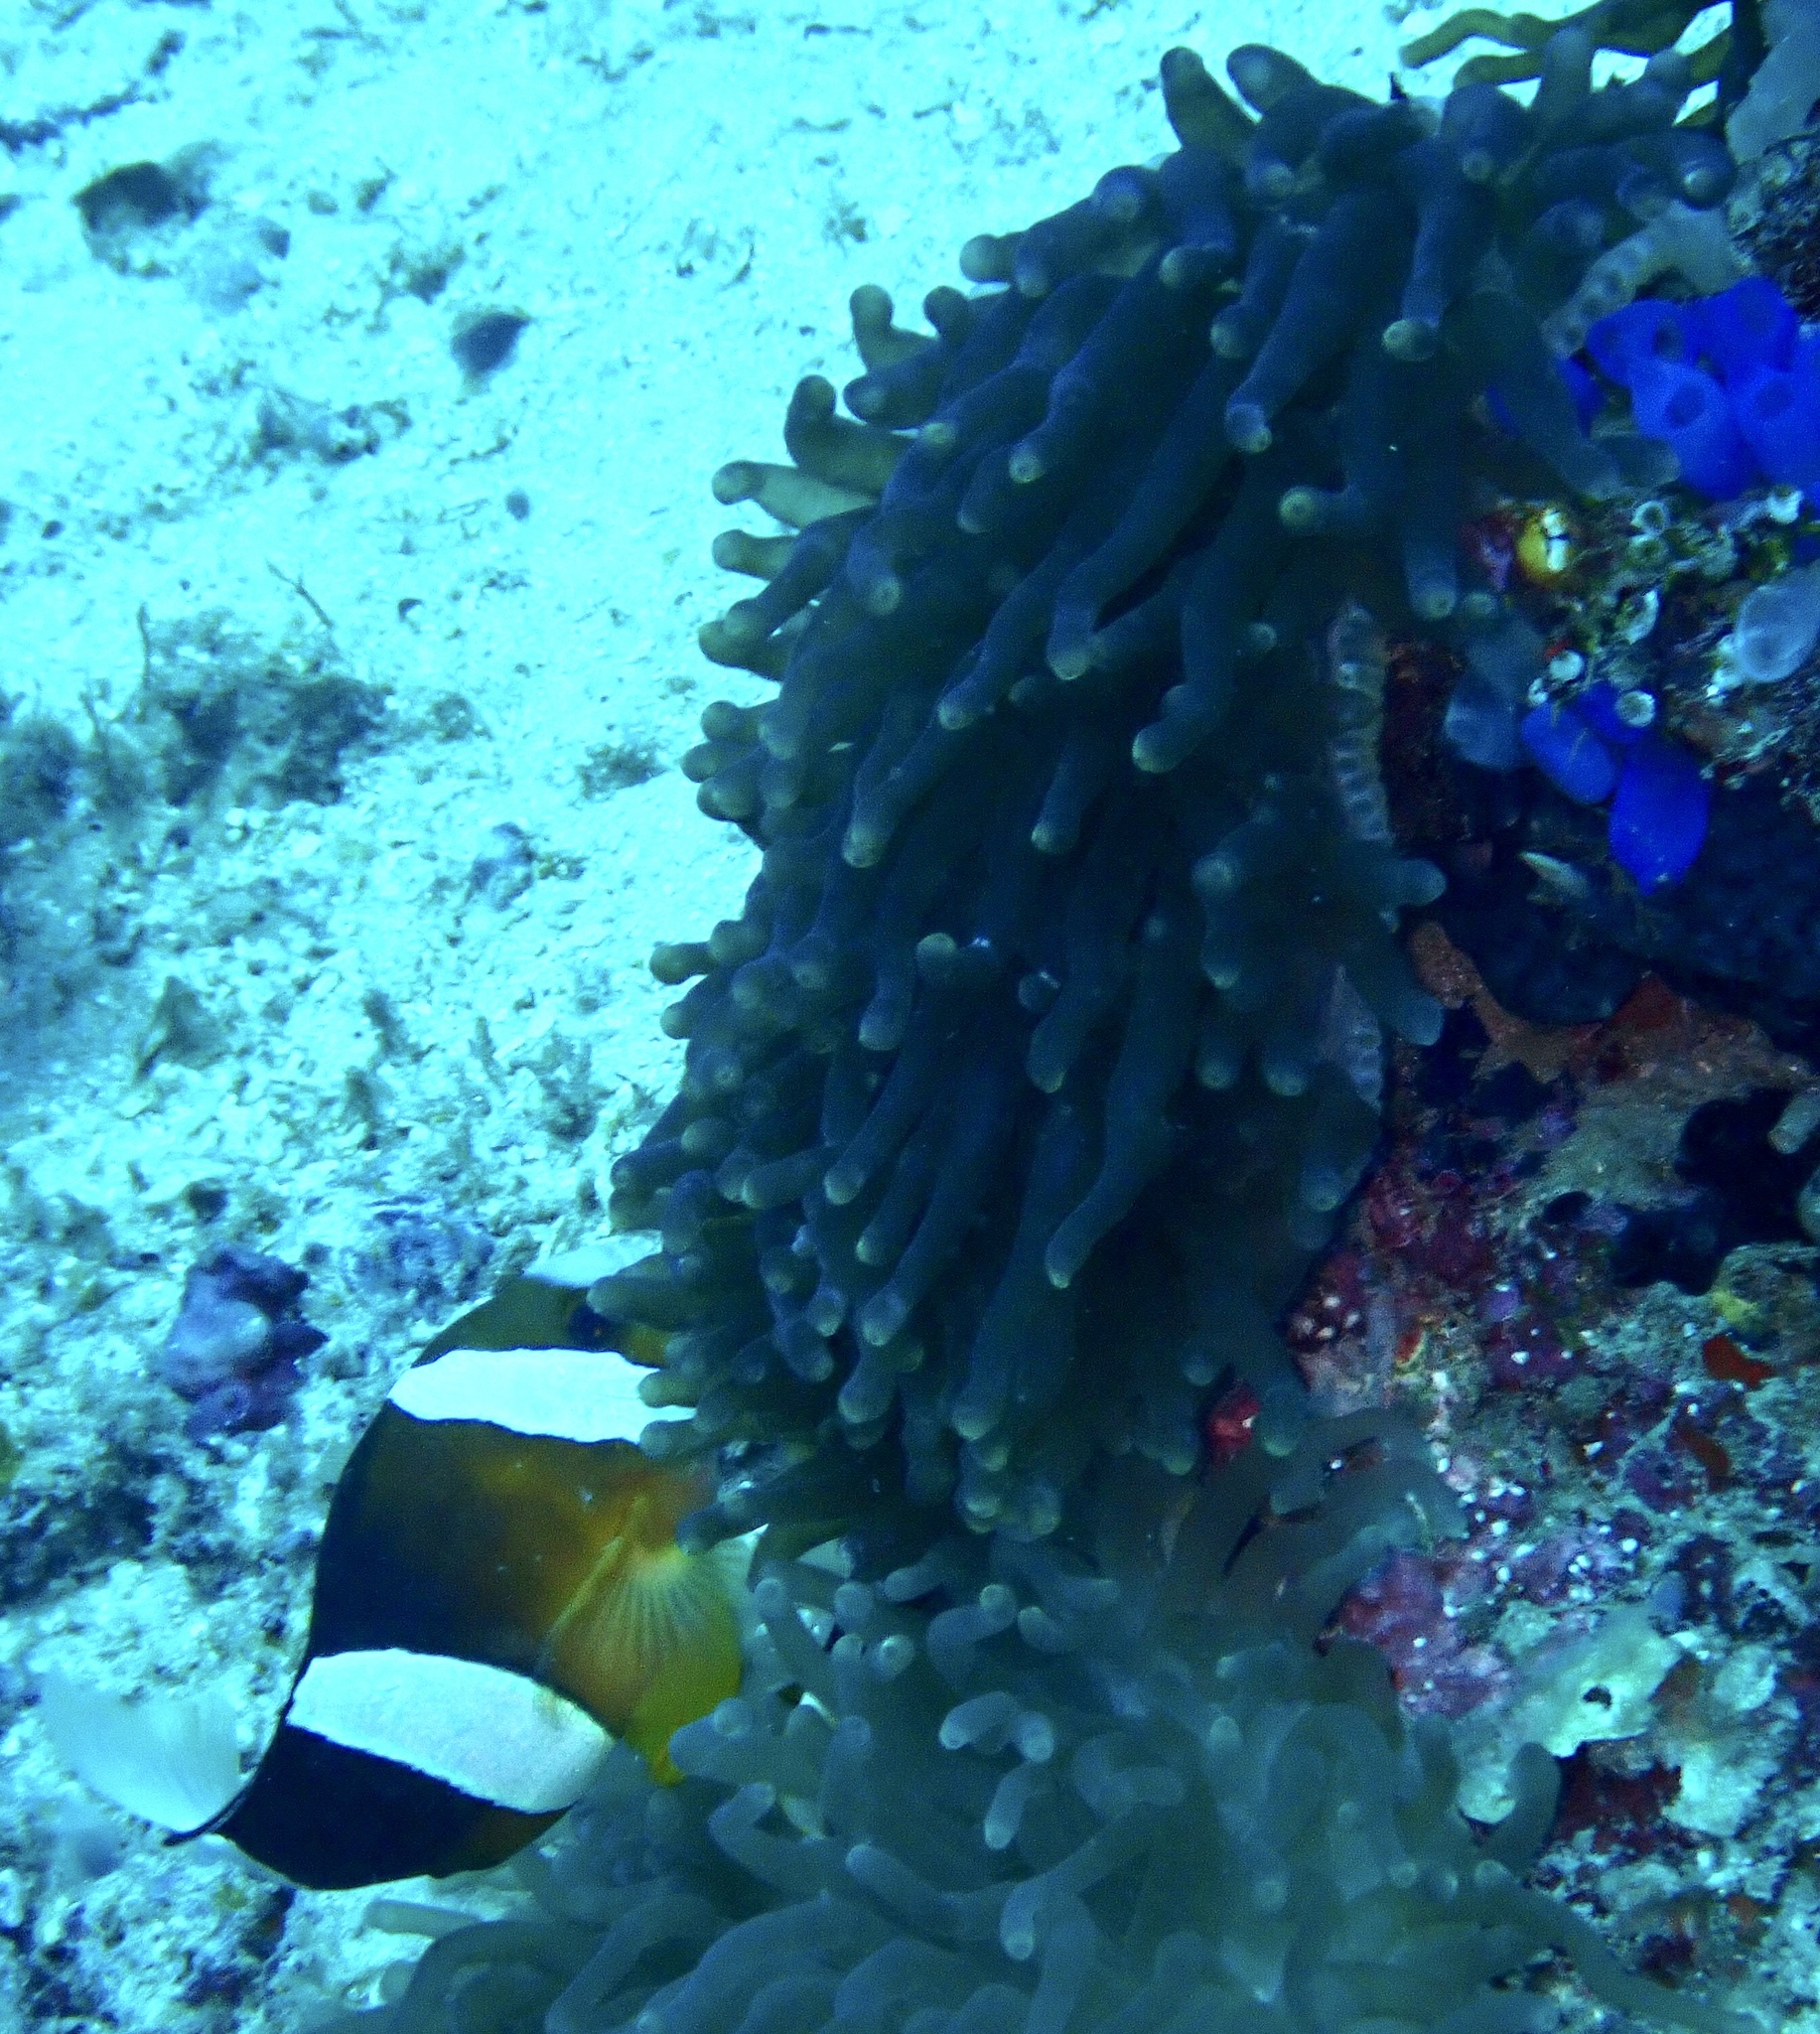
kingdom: Animalia
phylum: Cnidaria
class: Anthozoa
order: Actiniaria
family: Actiniidae
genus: Entacmaea
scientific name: Entacmaea quadricolor
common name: Bulb tentacle sea anemone
